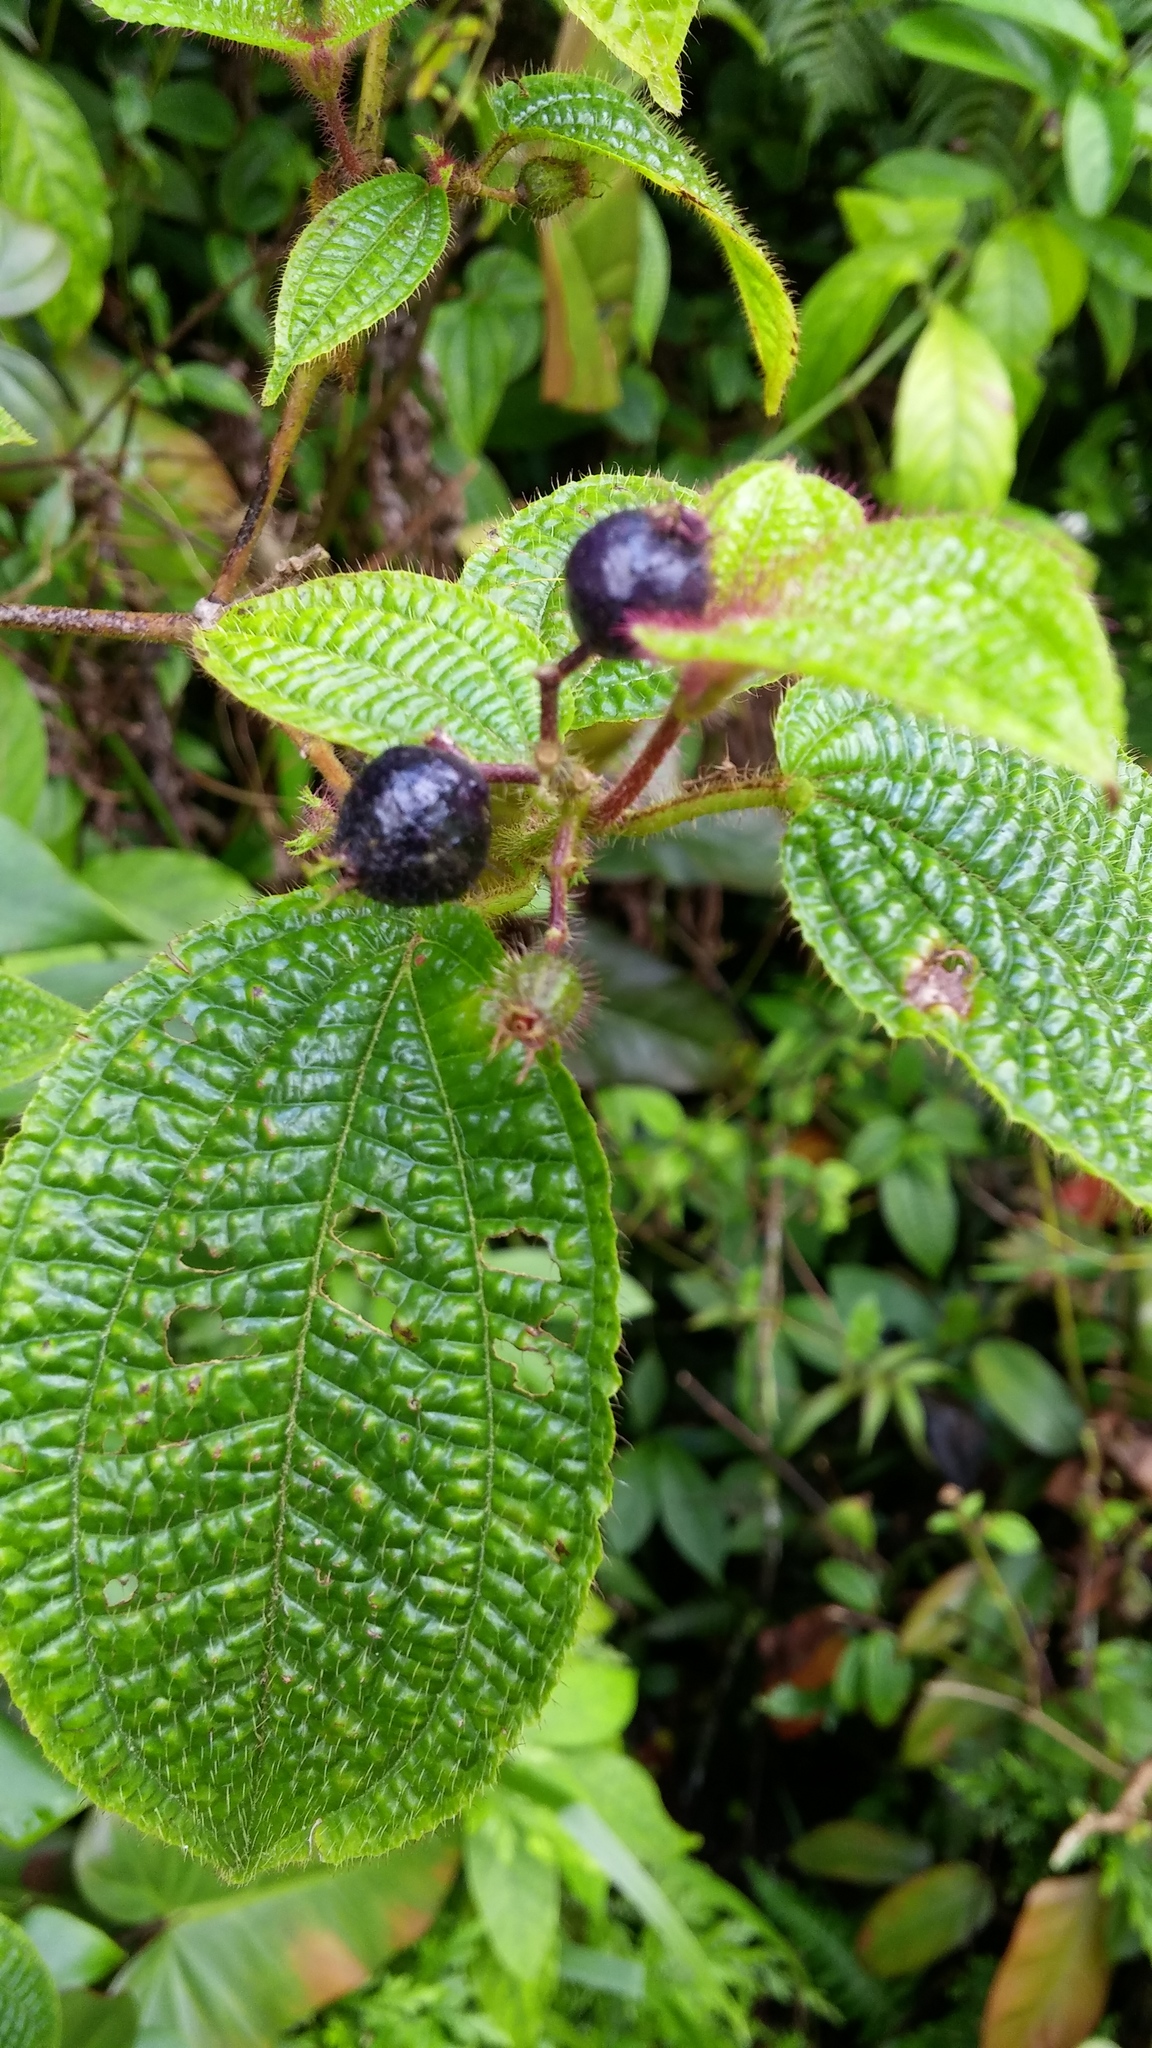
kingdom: Plantae
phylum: Tracheophyta
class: Magnoliopsida
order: Myrtales
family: Melastomataceae
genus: Miconia
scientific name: Miconia crenata
